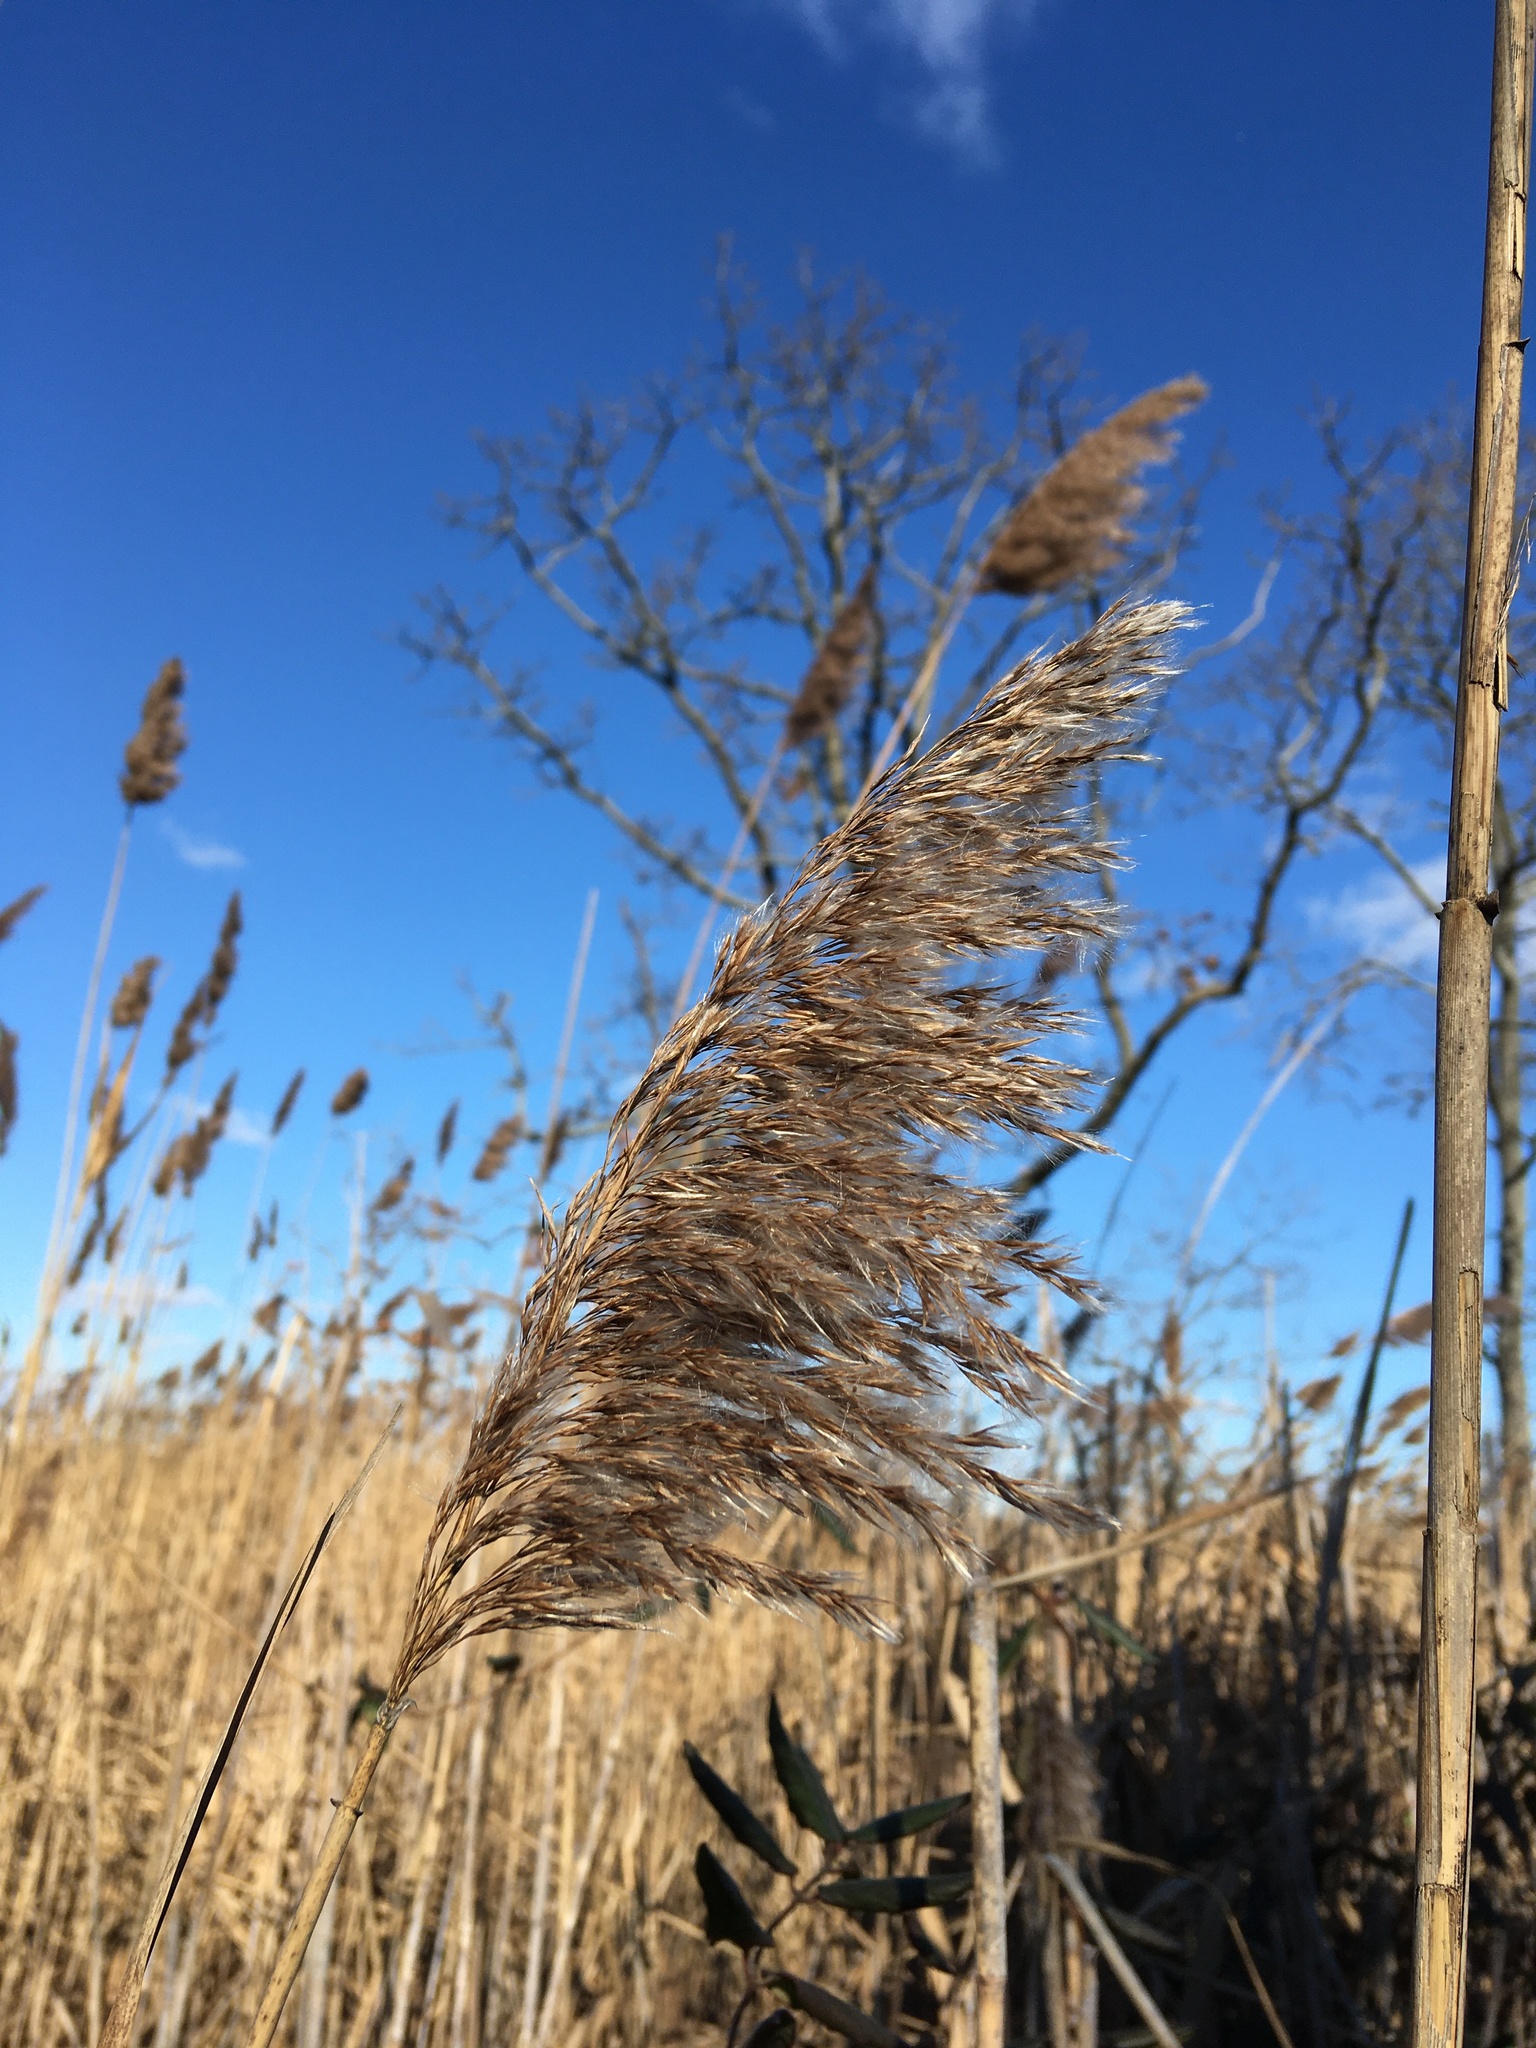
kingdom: Plantae
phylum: Tracheophyta
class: Liliopsida
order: Poales
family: Poaceae
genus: Phragmites
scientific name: Phragmites australis
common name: Common reed
